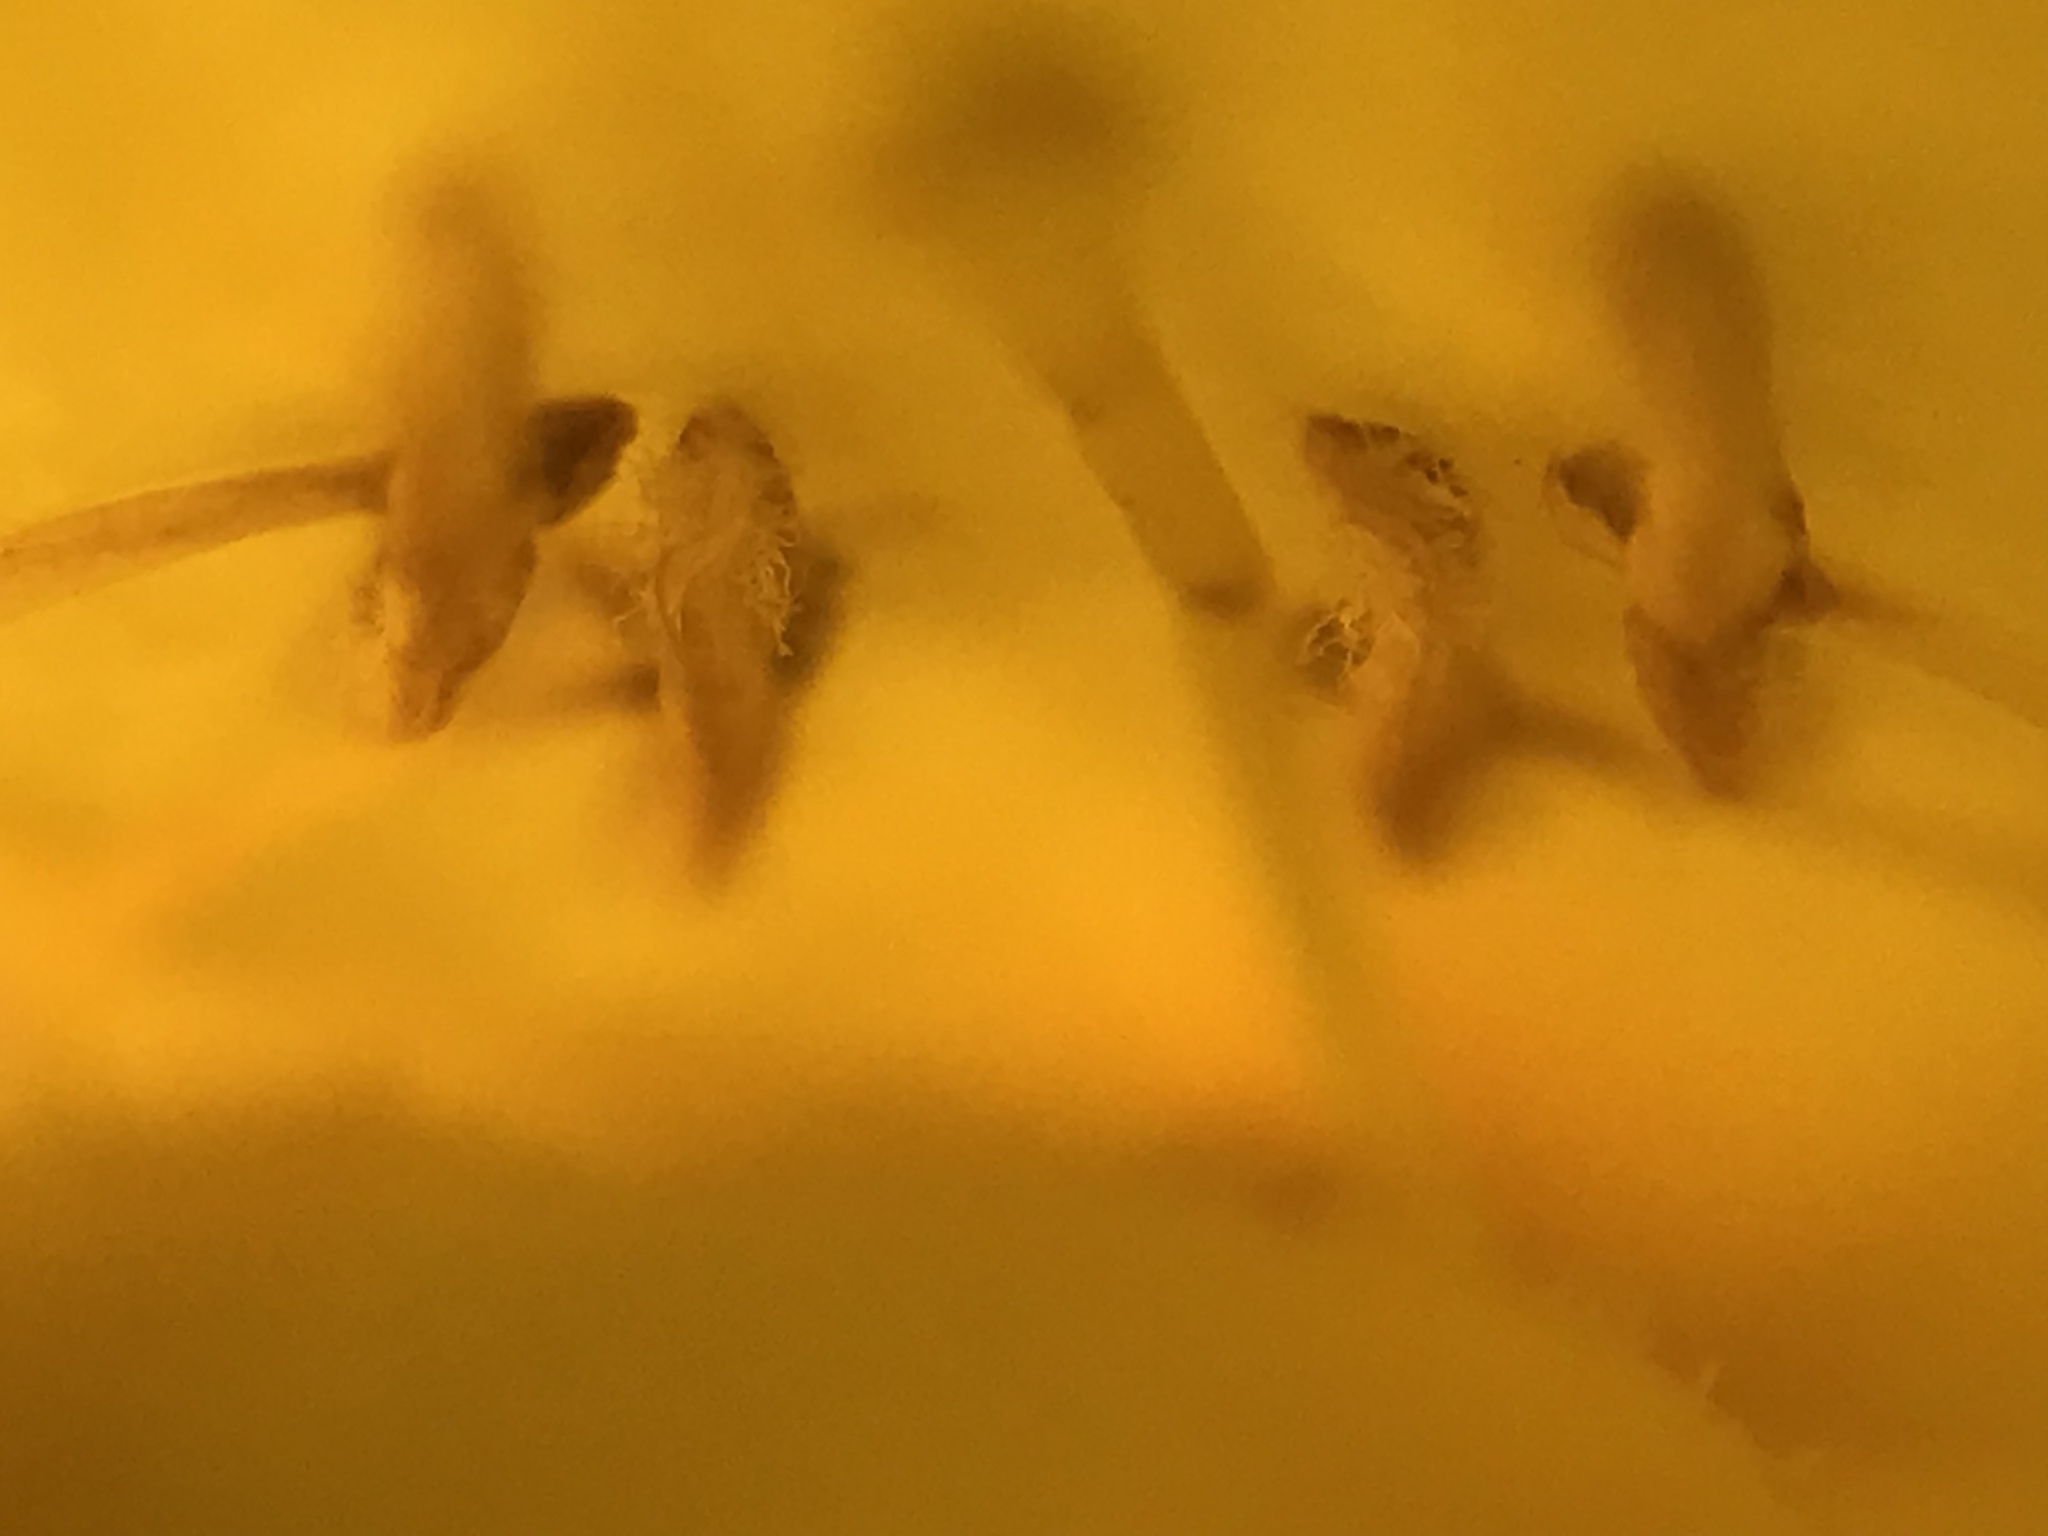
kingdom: Plantae
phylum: Tracheophyta
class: Magnoliopsida
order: Lamiales
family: Bignoniaceae
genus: Tecoma
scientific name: Tecoma stans
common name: Yellow trumpetbush
